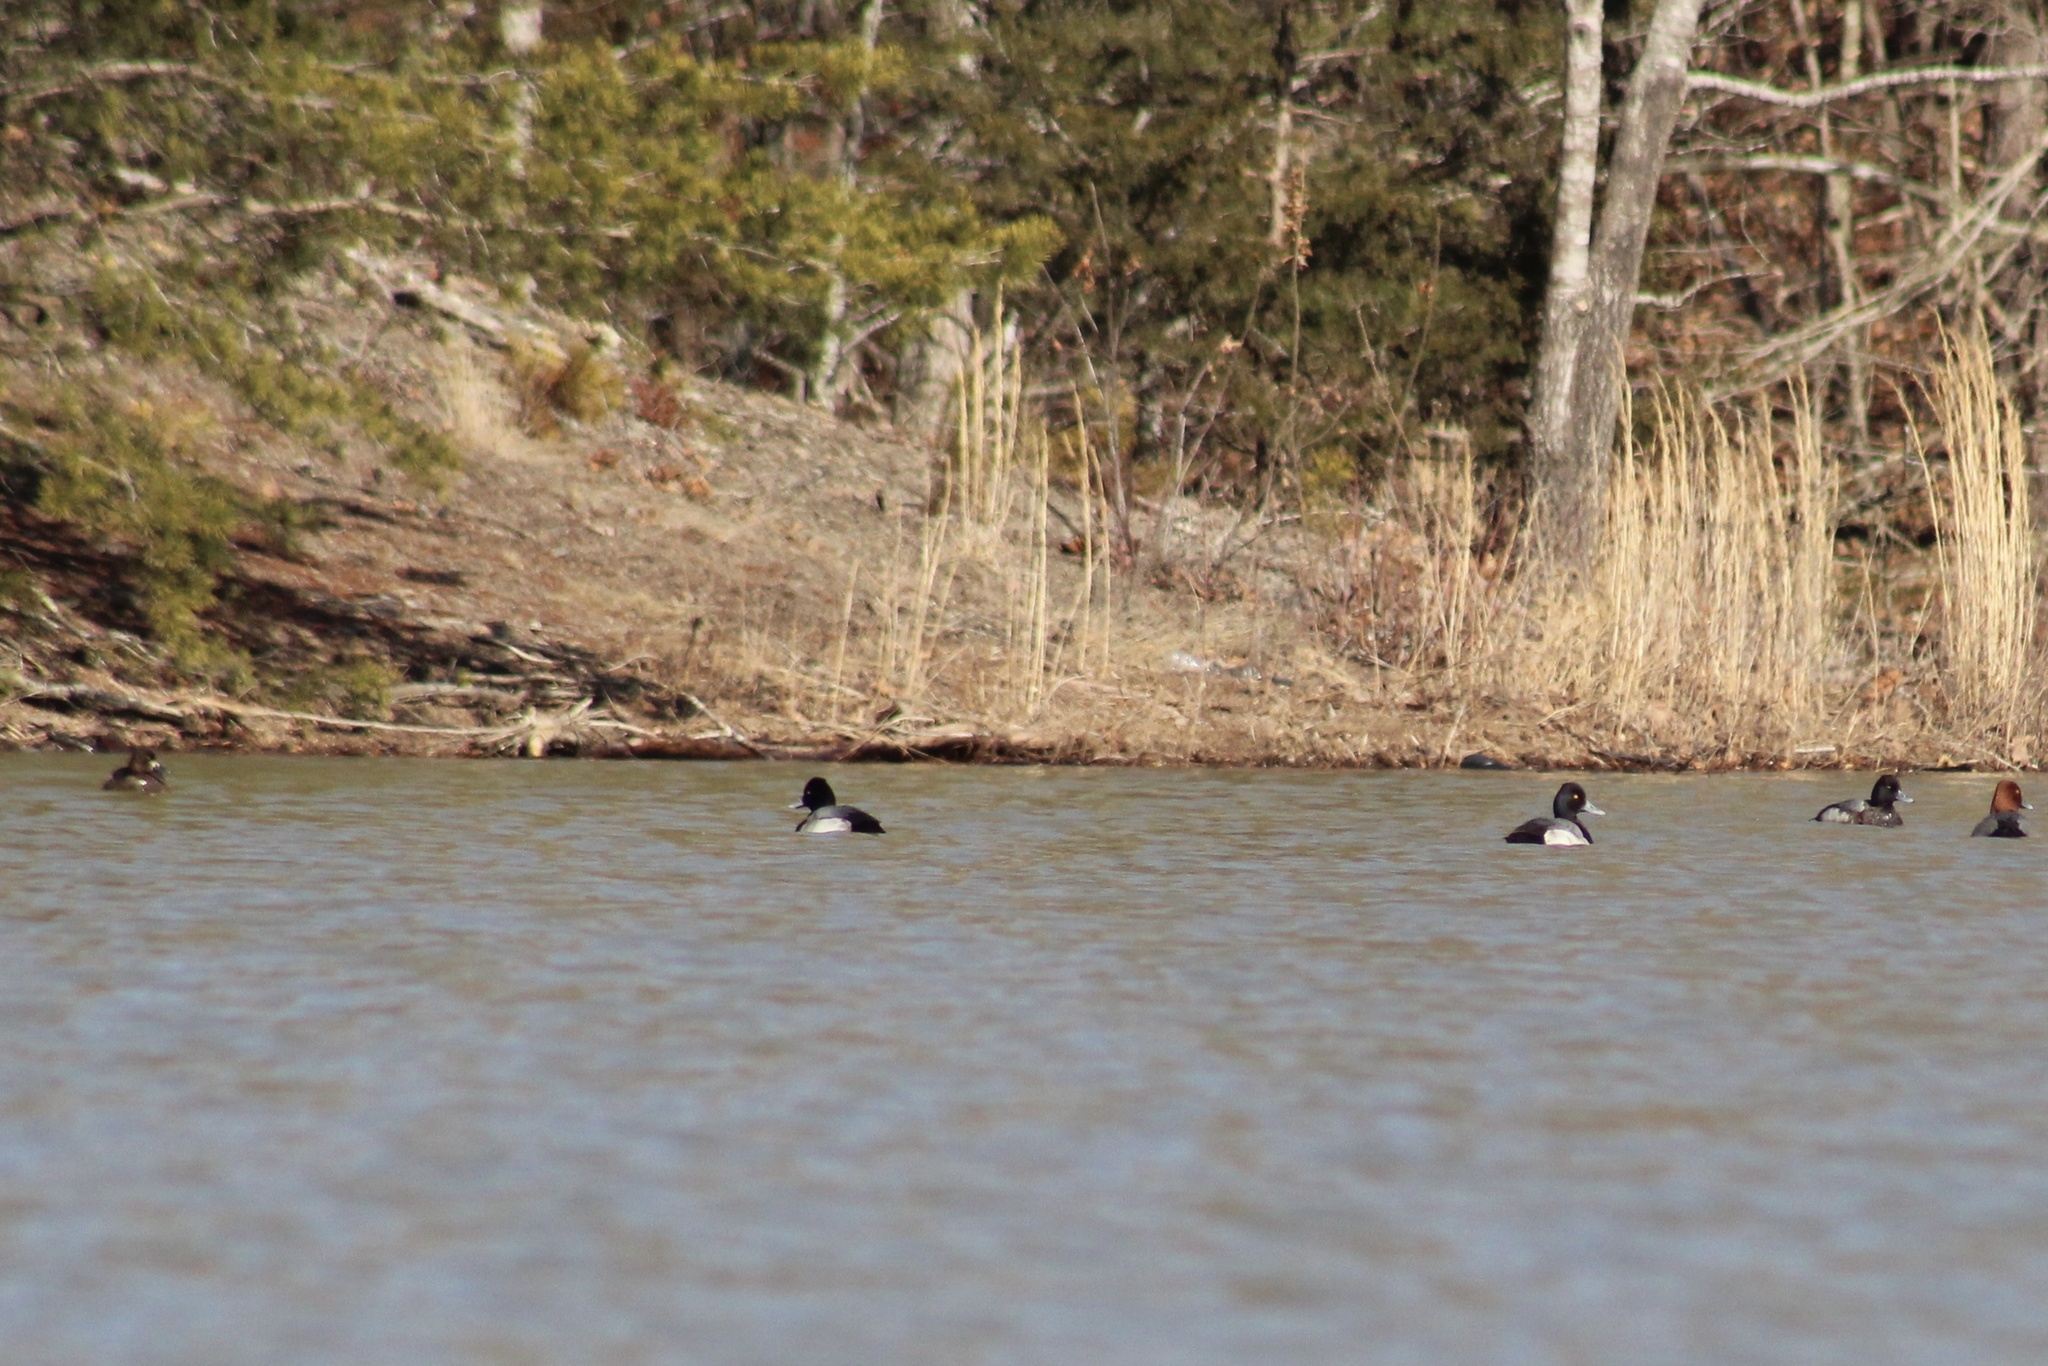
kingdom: Animalia
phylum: Chordata
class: Aves
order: Anseriformes
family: Anatidae
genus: Aythya
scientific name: Aythya affinis
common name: Lesser scaup
